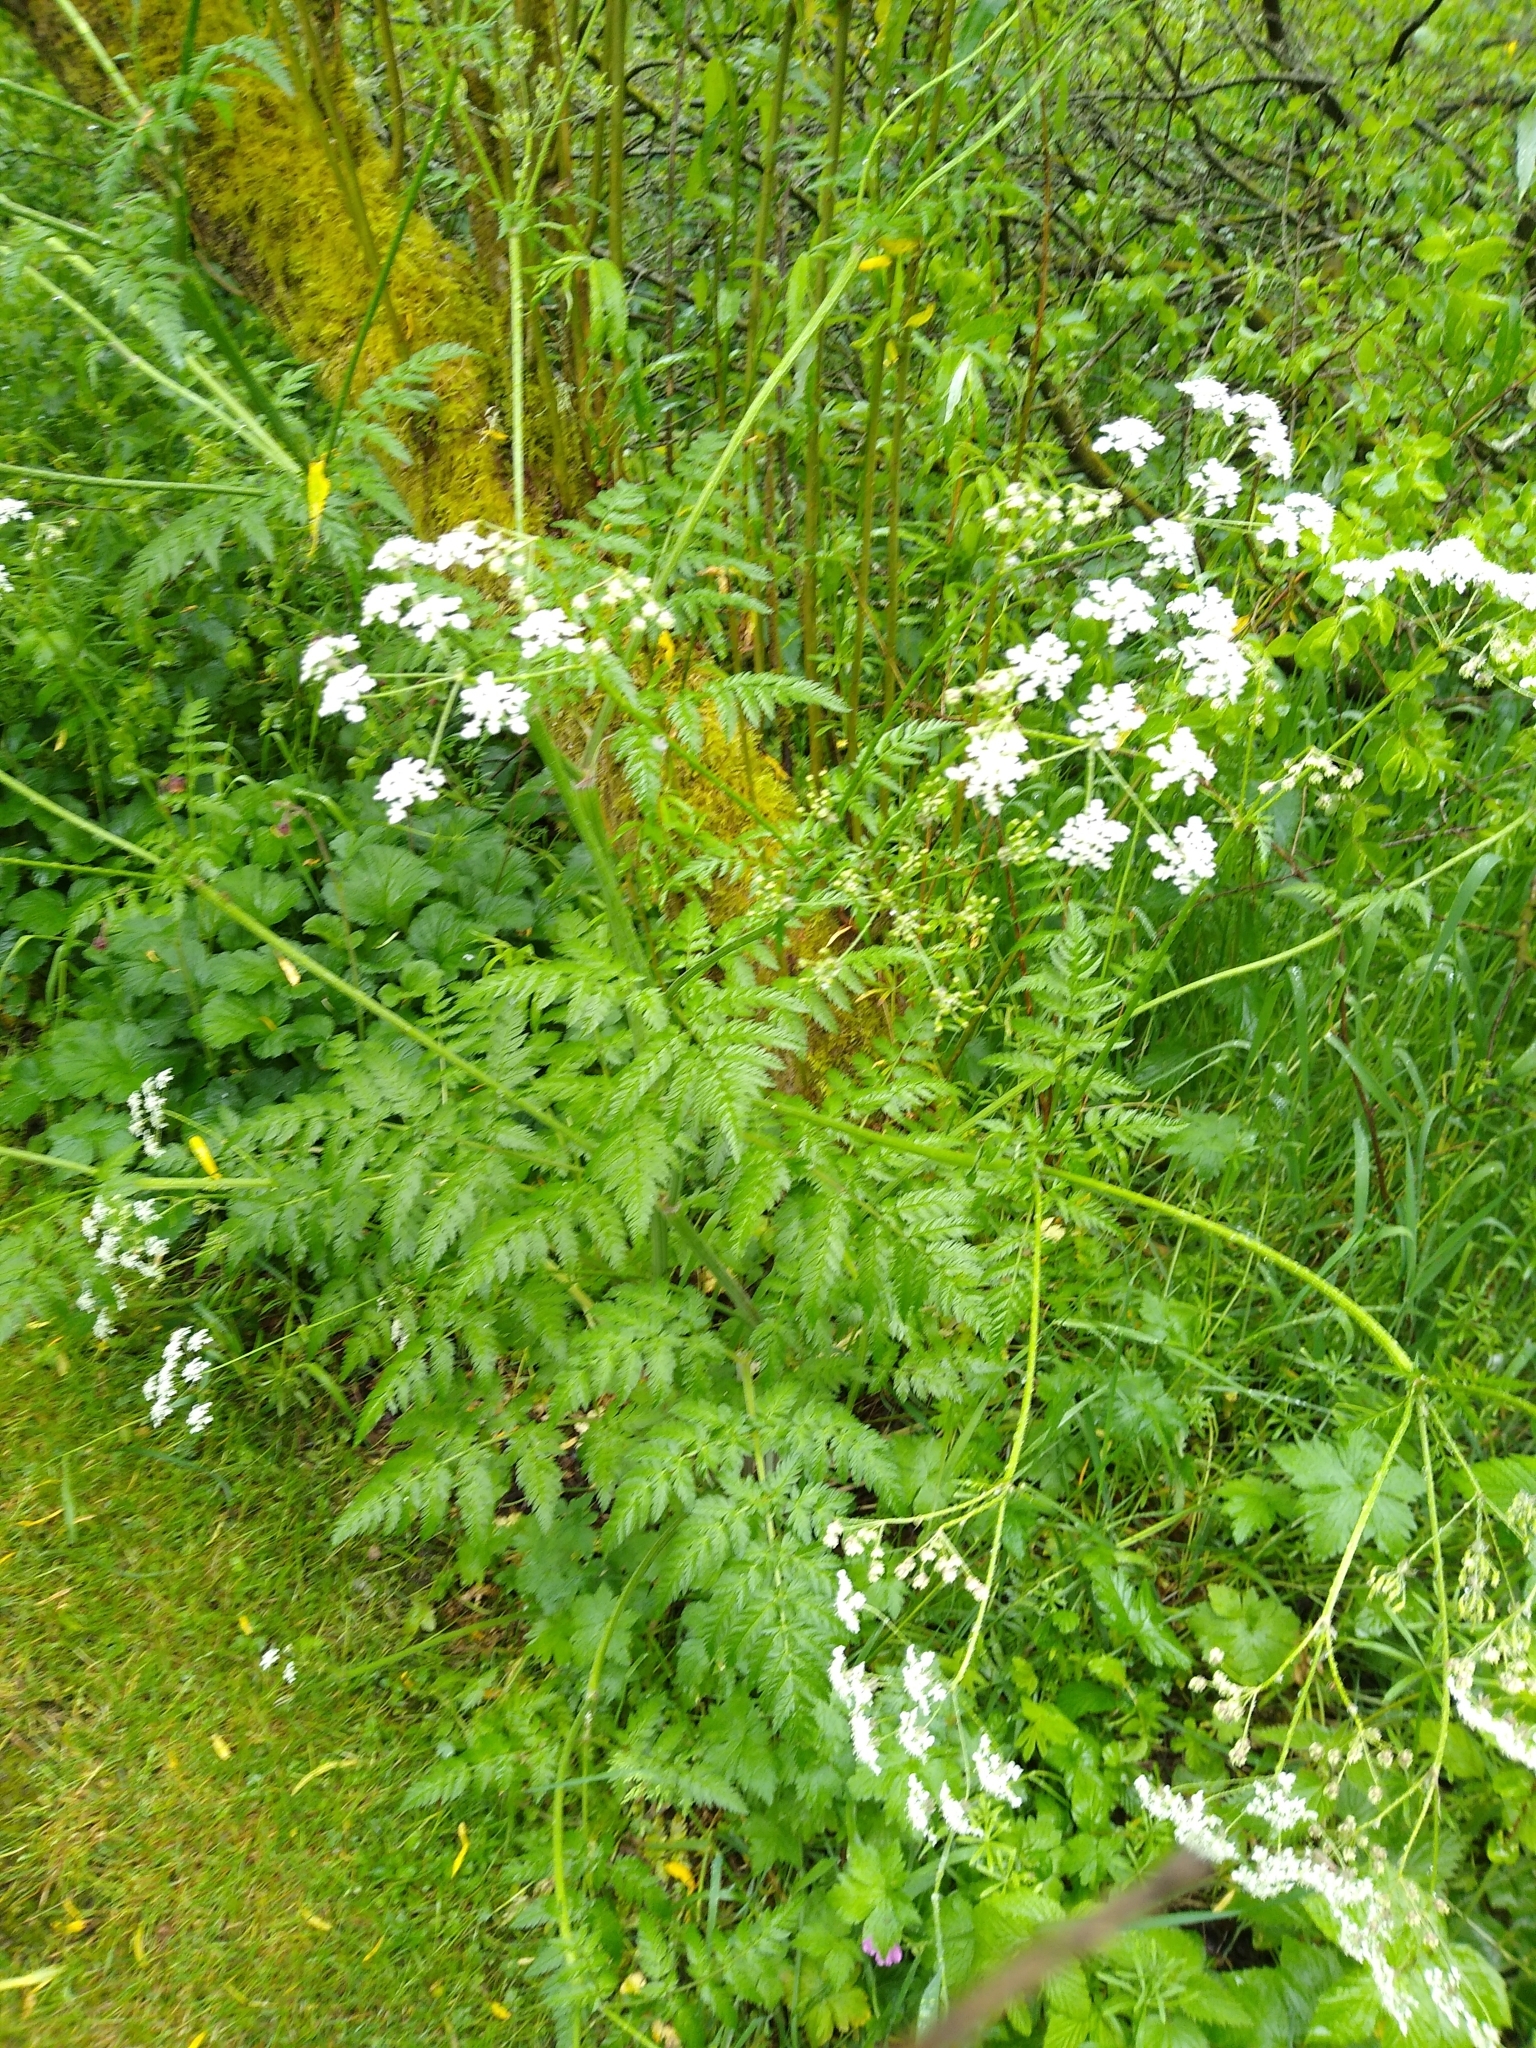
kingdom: Plantae
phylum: Tracheophyta
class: Magnoliopsida
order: Apiales
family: Apiaceae
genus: Anthriscus
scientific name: Anthriscus sylvestris
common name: Cow parsley
